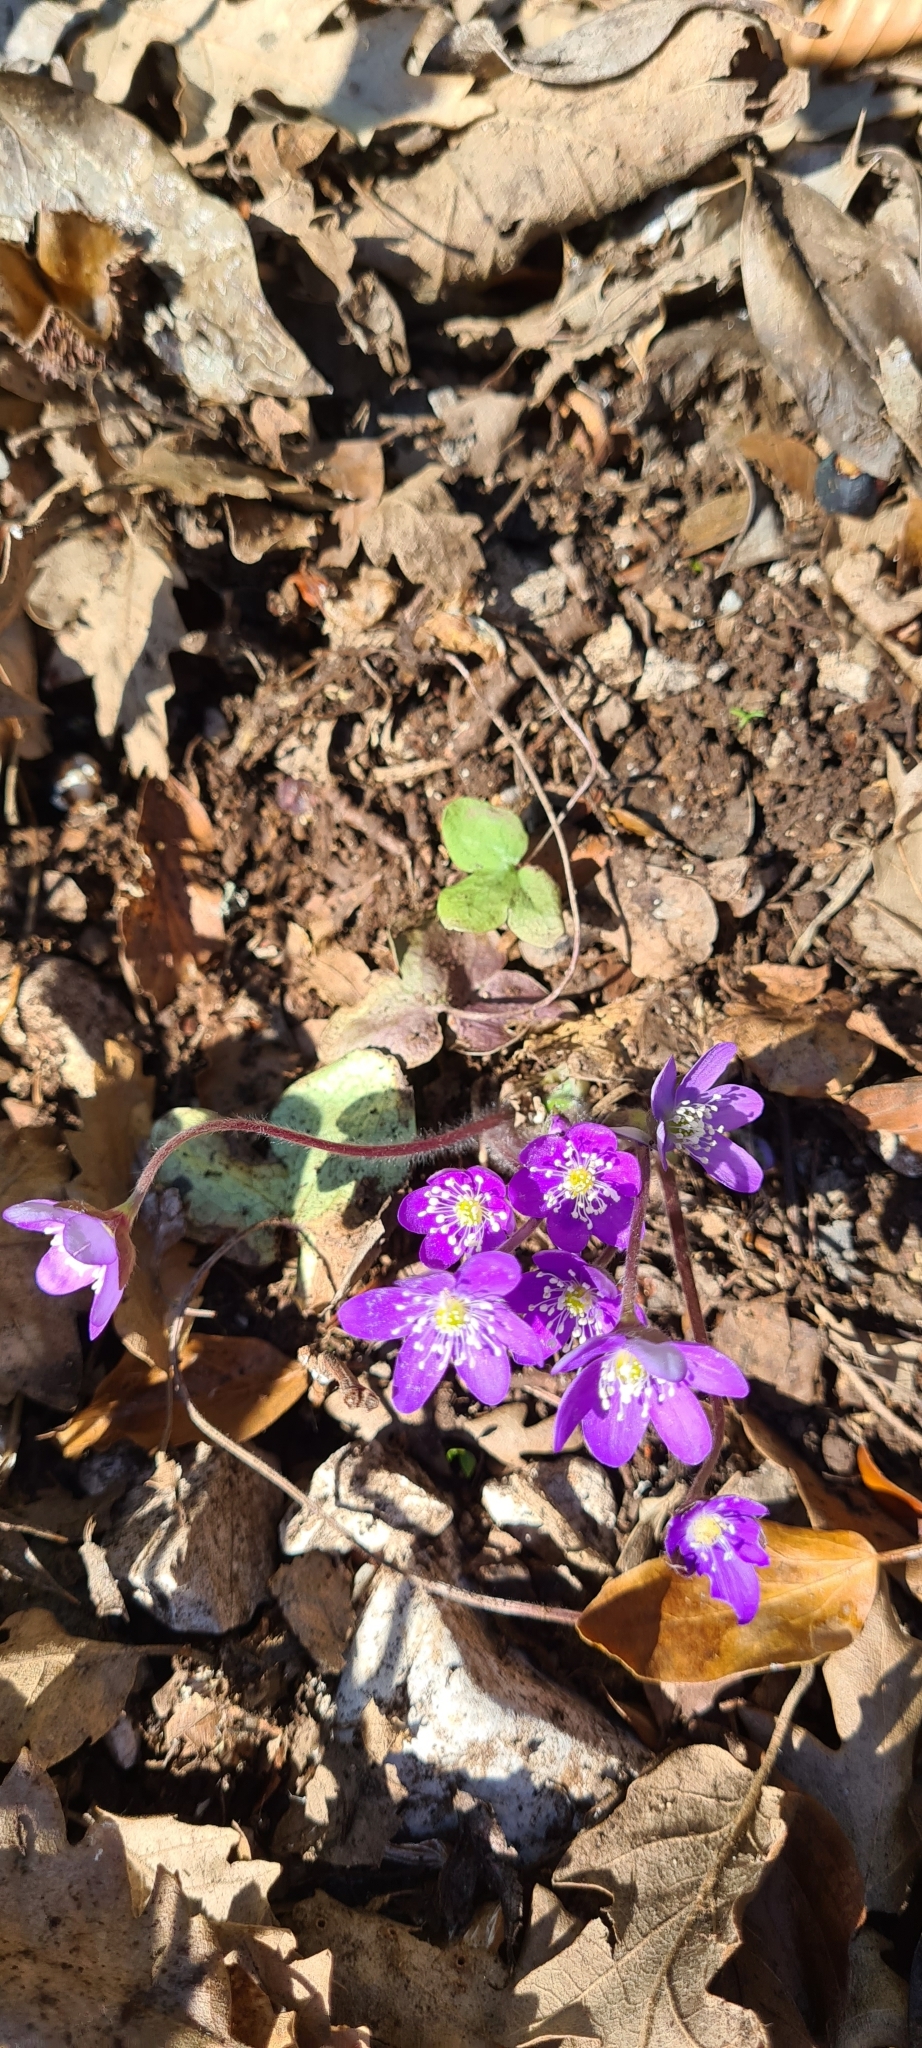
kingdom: Plantae
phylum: Tracheophyta
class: Magnoliopsida
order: Ranunculales
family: Ranunculaceae
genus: Hepatica
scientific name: Hepatica nobilis
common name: Liverleaf
